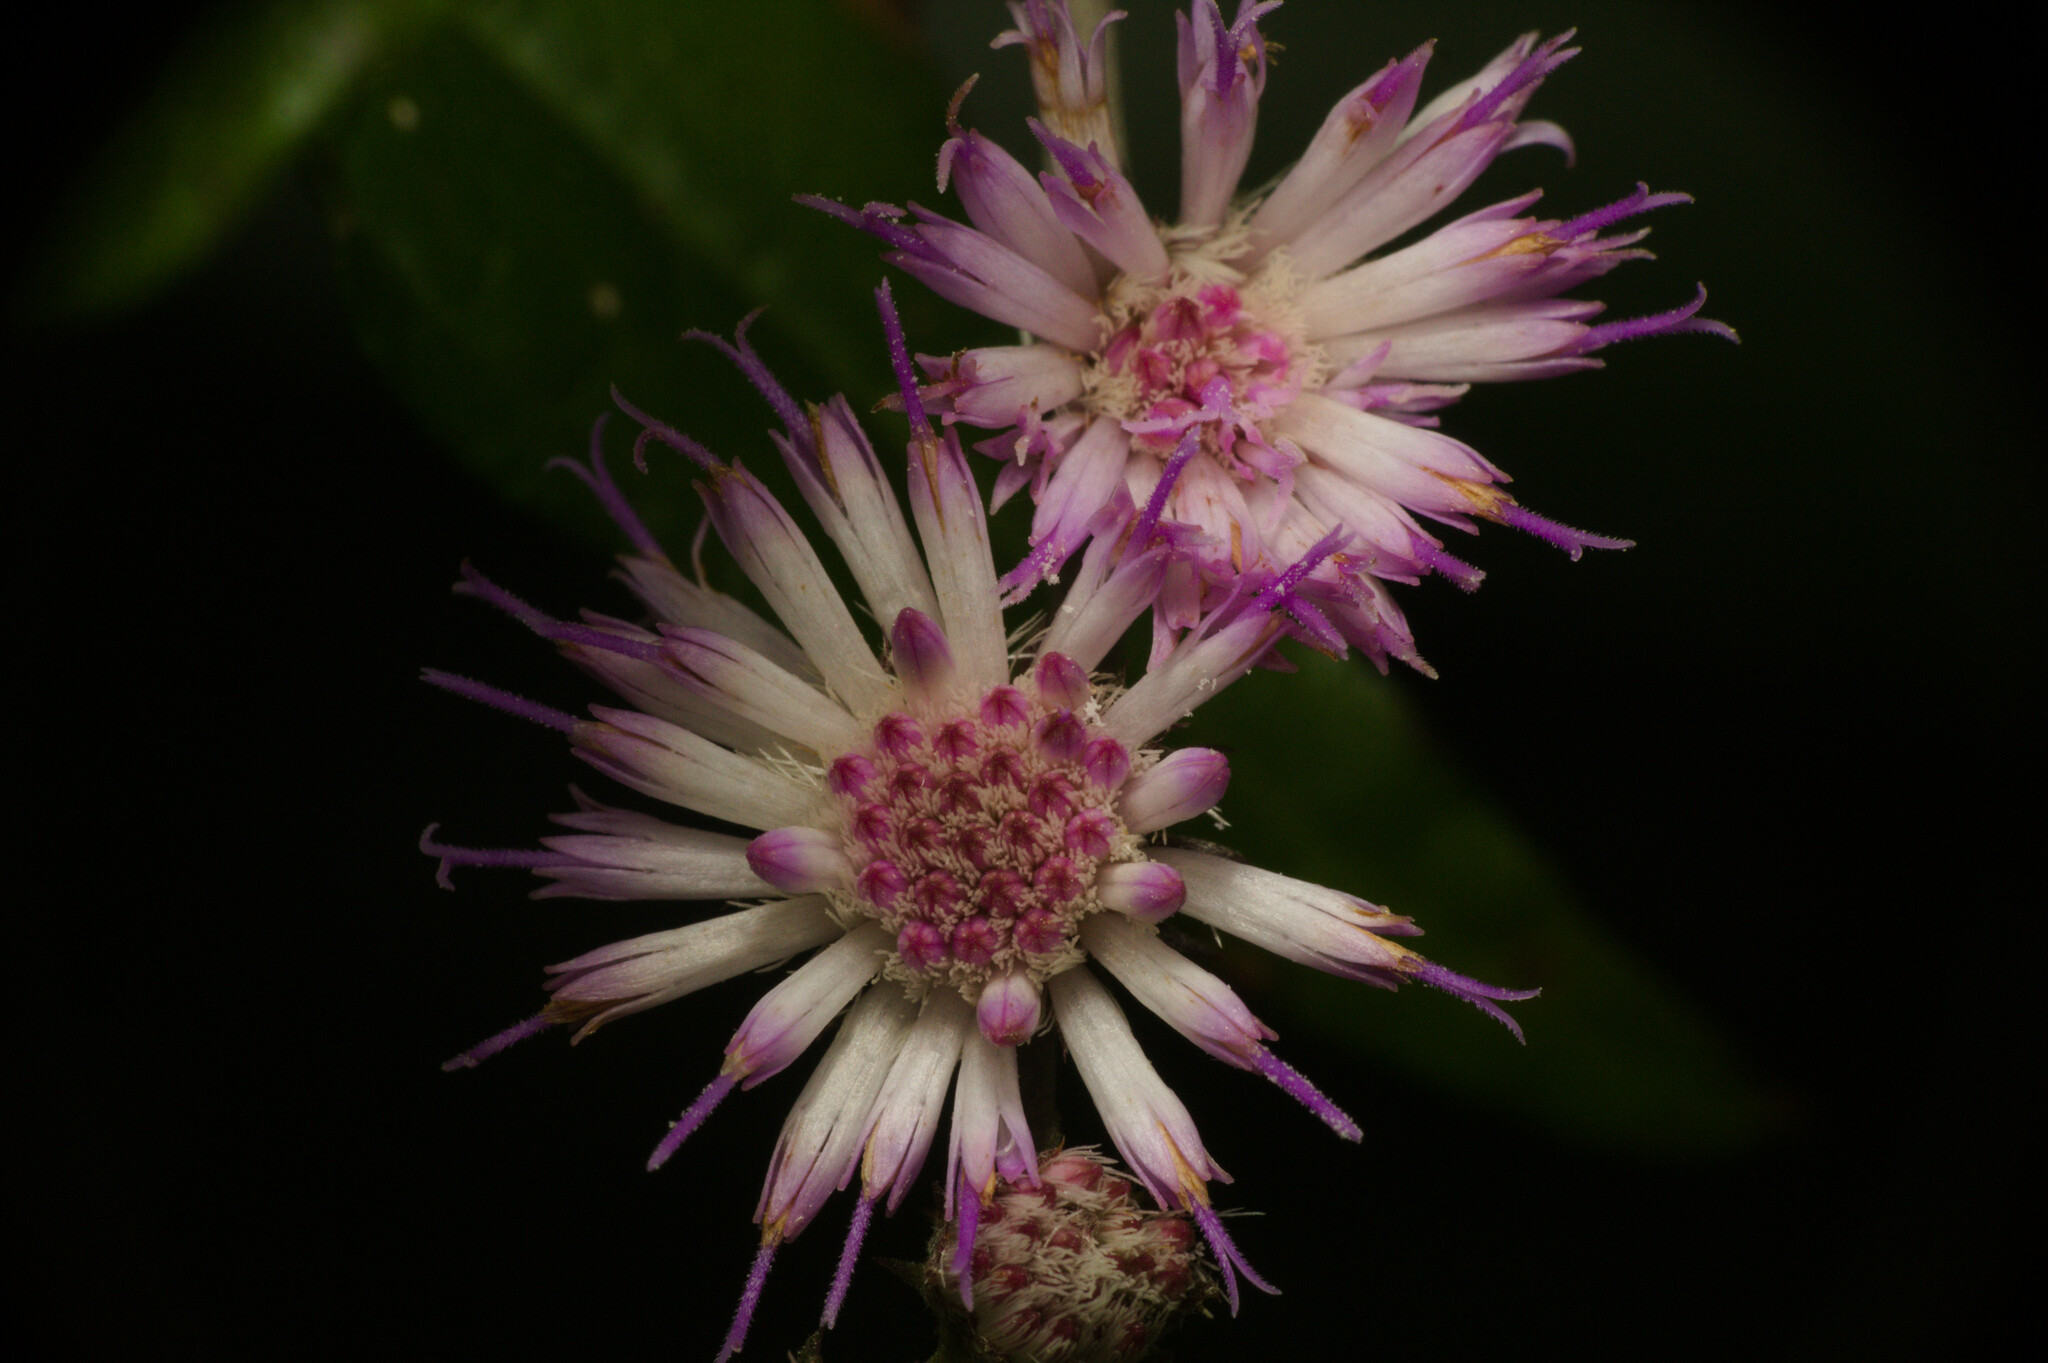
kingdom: Plantae
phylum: Tracheophyta
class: Magnoliopsida
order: Asterales
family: Asteraceae
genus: Cyrtocymura
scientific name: Cyrtocymura scorpioides
